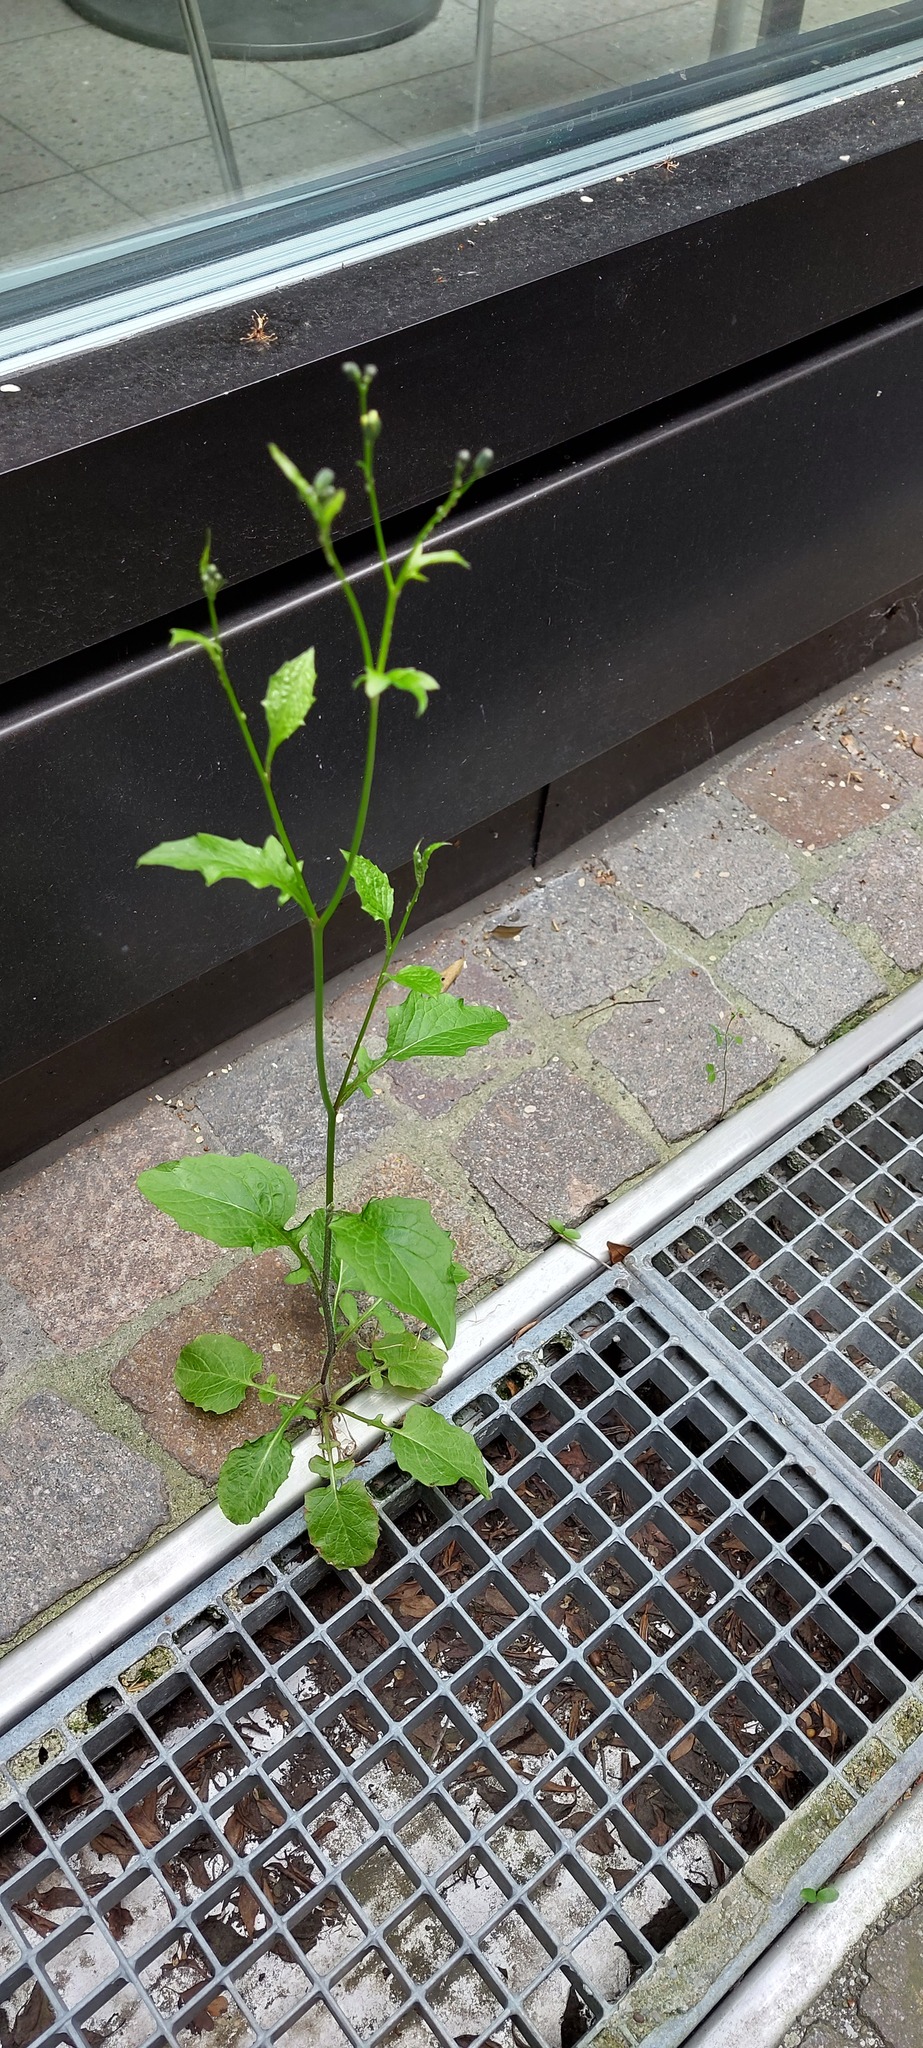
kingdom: Plantae
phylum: Tracheophyta
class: Magnoliopsida
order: Asterales
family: Asteraceae
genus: Mycelis
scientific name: Mycelis muralis
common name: Wall lettuce
